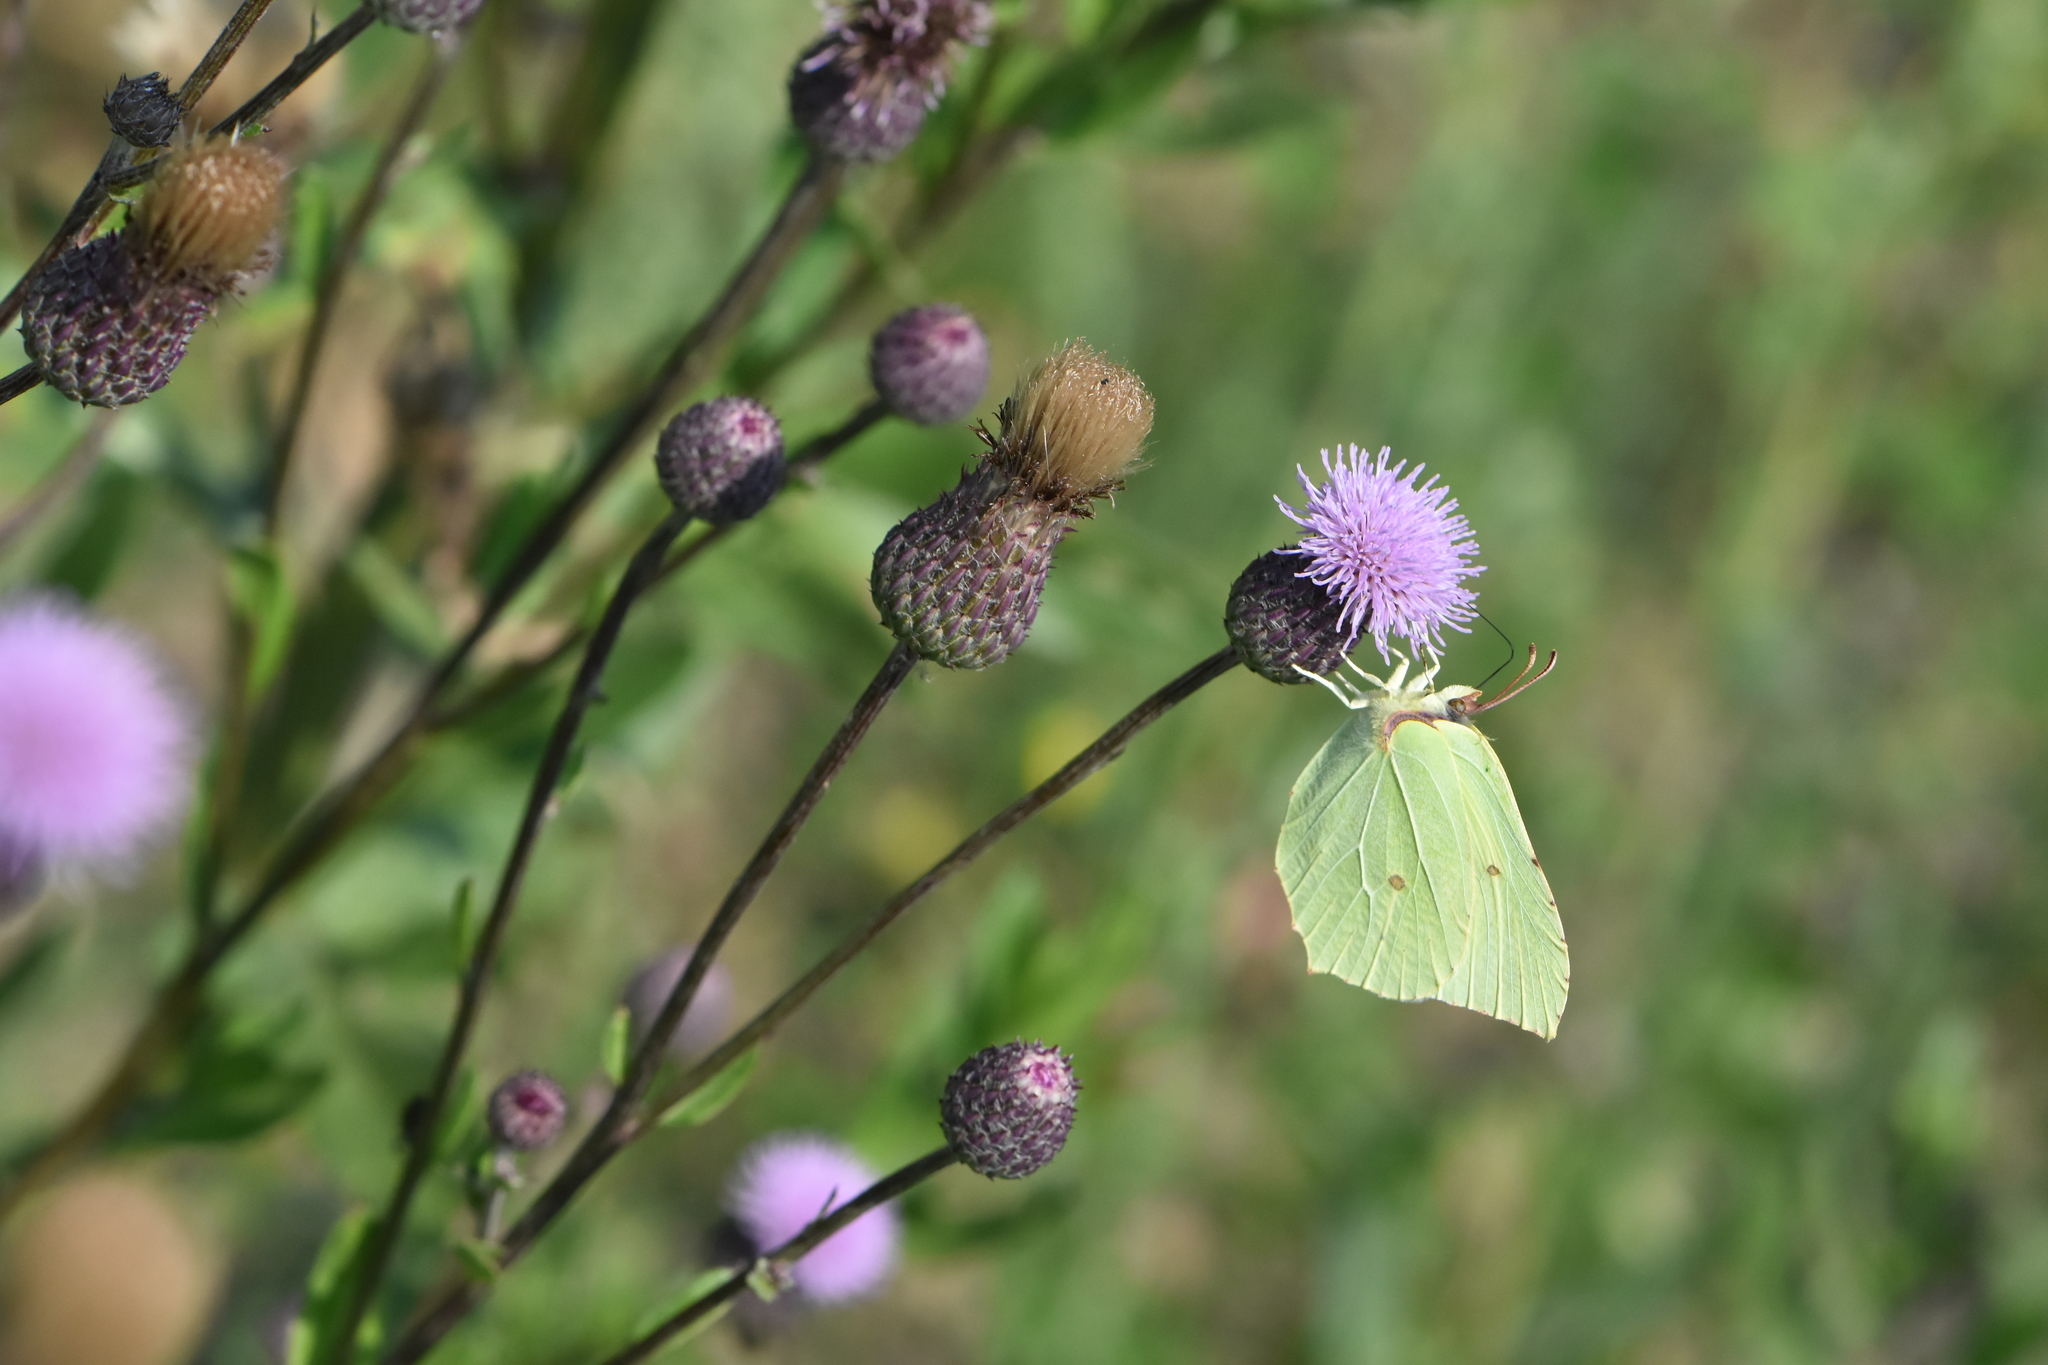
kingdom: Animalia
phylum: Arthropoda
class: Insecta
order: Lepidoptera
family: Pieridae
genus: Gonepteryx
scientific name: Gonepteryx rhamni
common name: Brimstone
